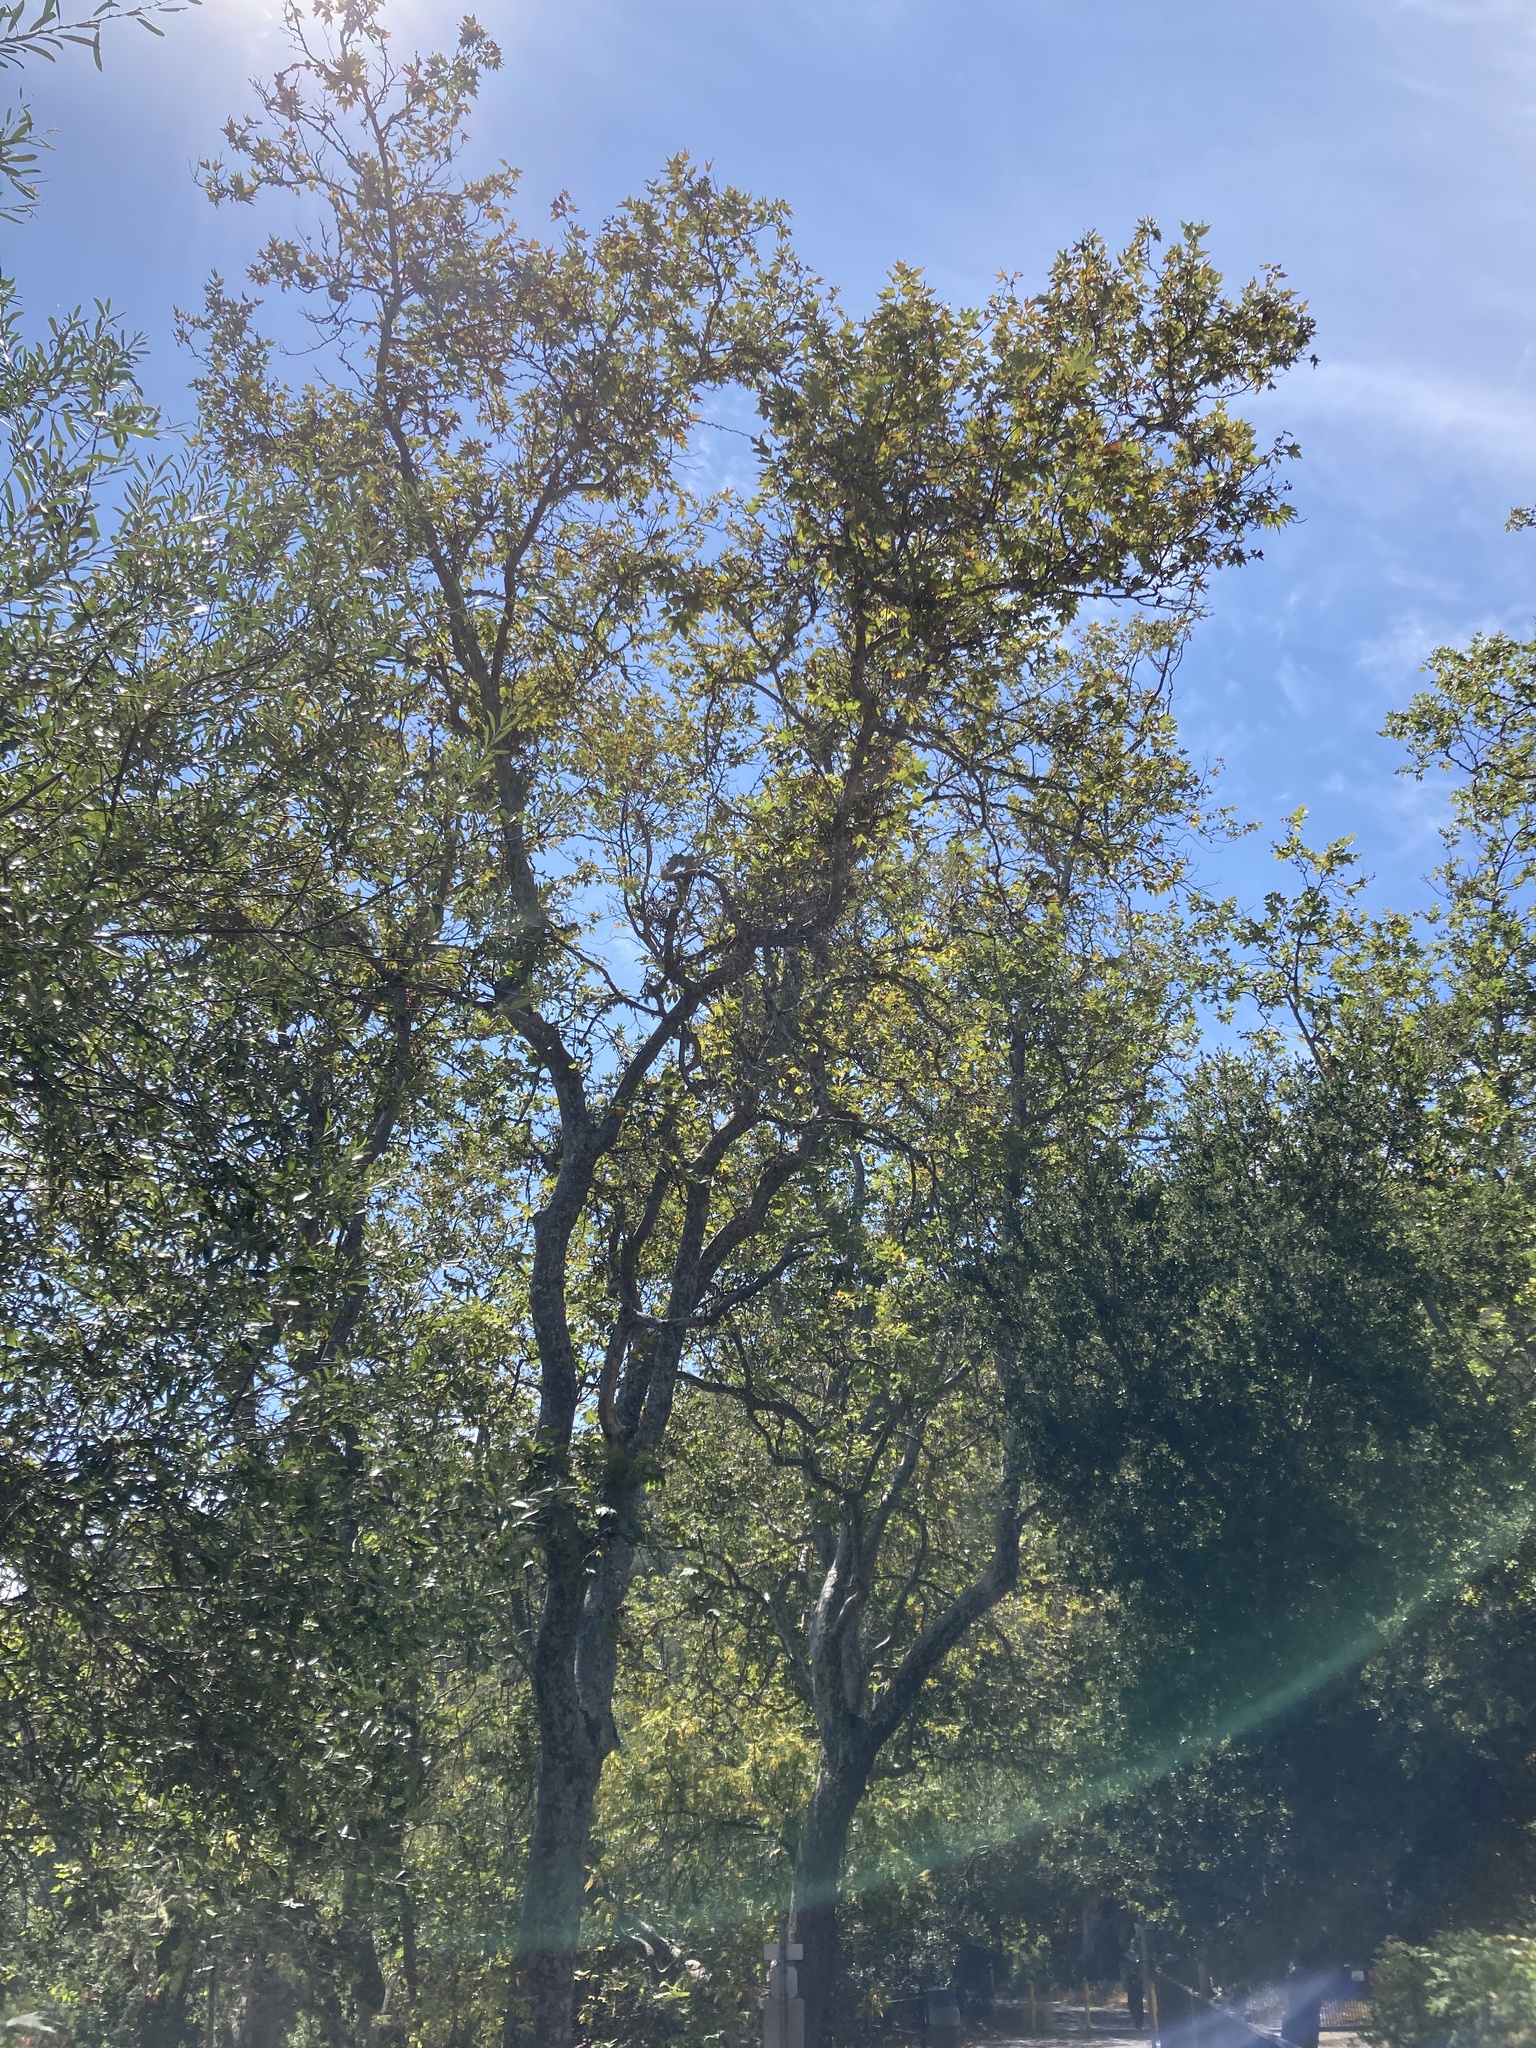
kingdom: Plantae
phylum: Tracheophyta
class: Magnoliopsida
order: Proteales
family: Platanaceae
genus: Platanus
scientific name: Platanus racemosa
